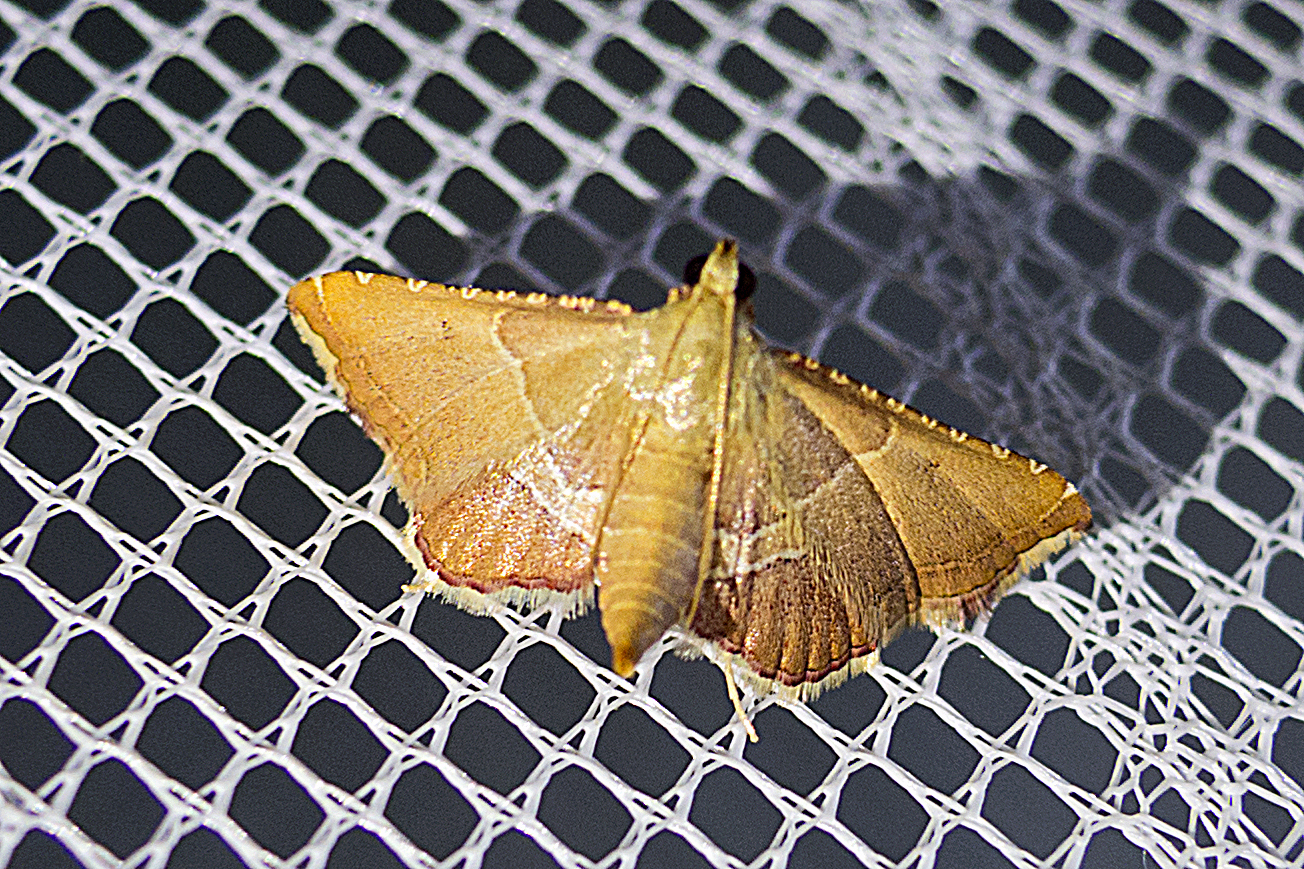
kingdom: Animalia
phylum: Arthropoda
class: Insecta
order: Lepidoptera
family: Pyralidae
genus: Endotricha
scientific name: Endotricha flammealis
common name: Rosy tabby
